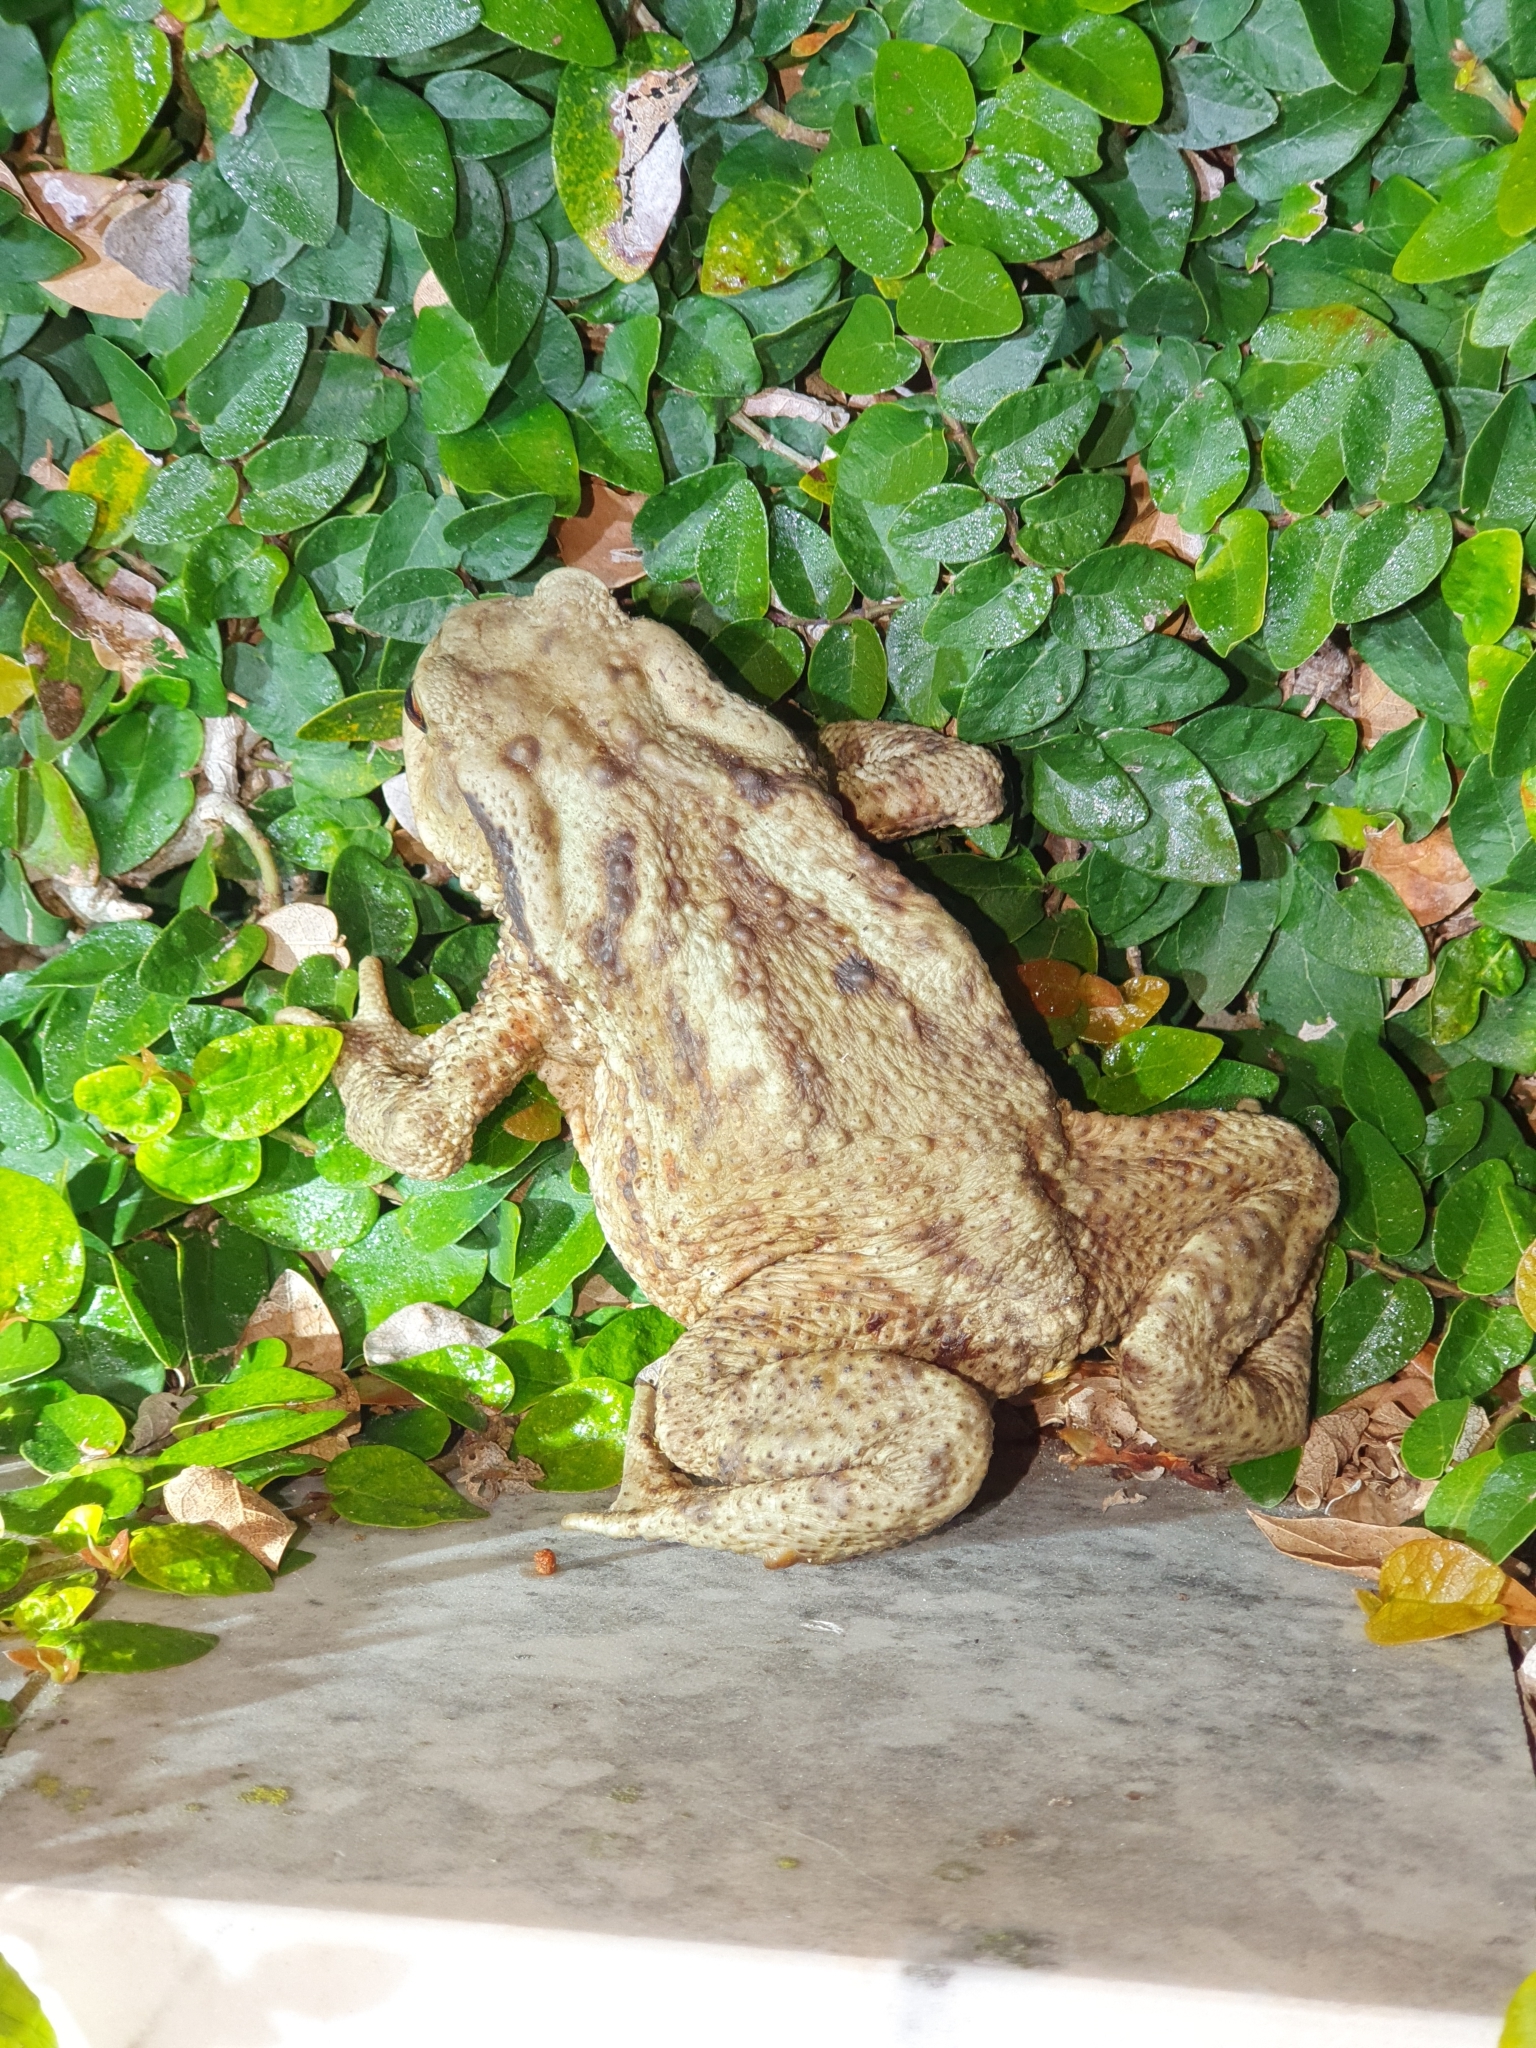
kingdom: Animalia
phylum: Chordata
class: Amphibia
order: Anura
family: Bufonidae
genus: Bufo
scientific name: Bufo bufo
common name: Common toad
